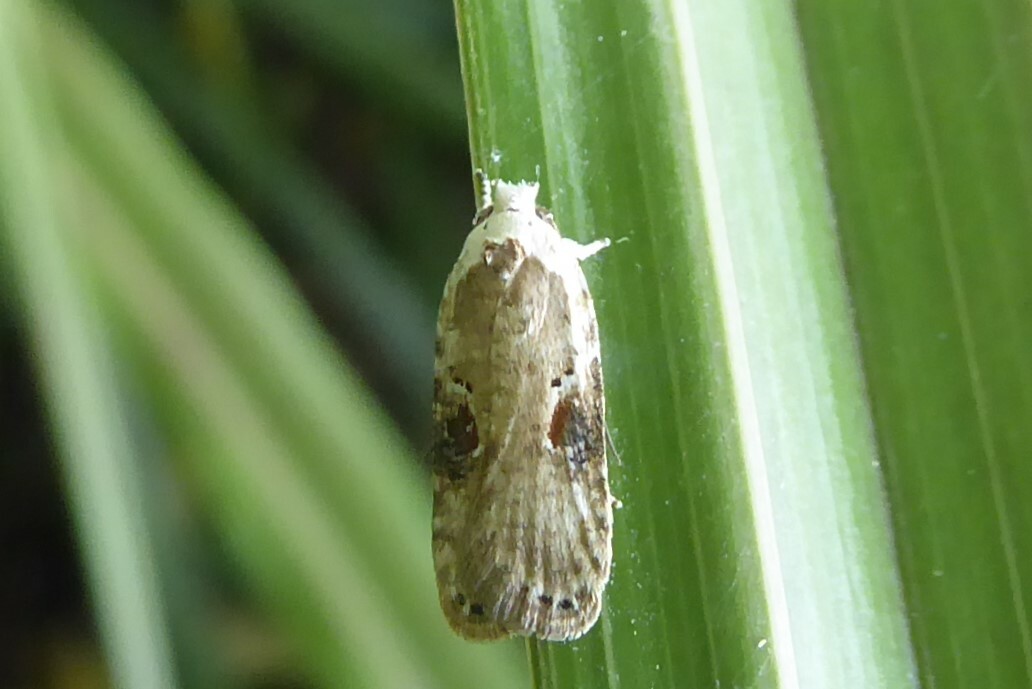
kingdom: Animalia
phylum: Arthropoda
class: Insecta
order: Lepidoptera
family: Depressariidae
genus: Agonopterix
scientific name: Agonopterix alstroemeriana
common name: Moth
